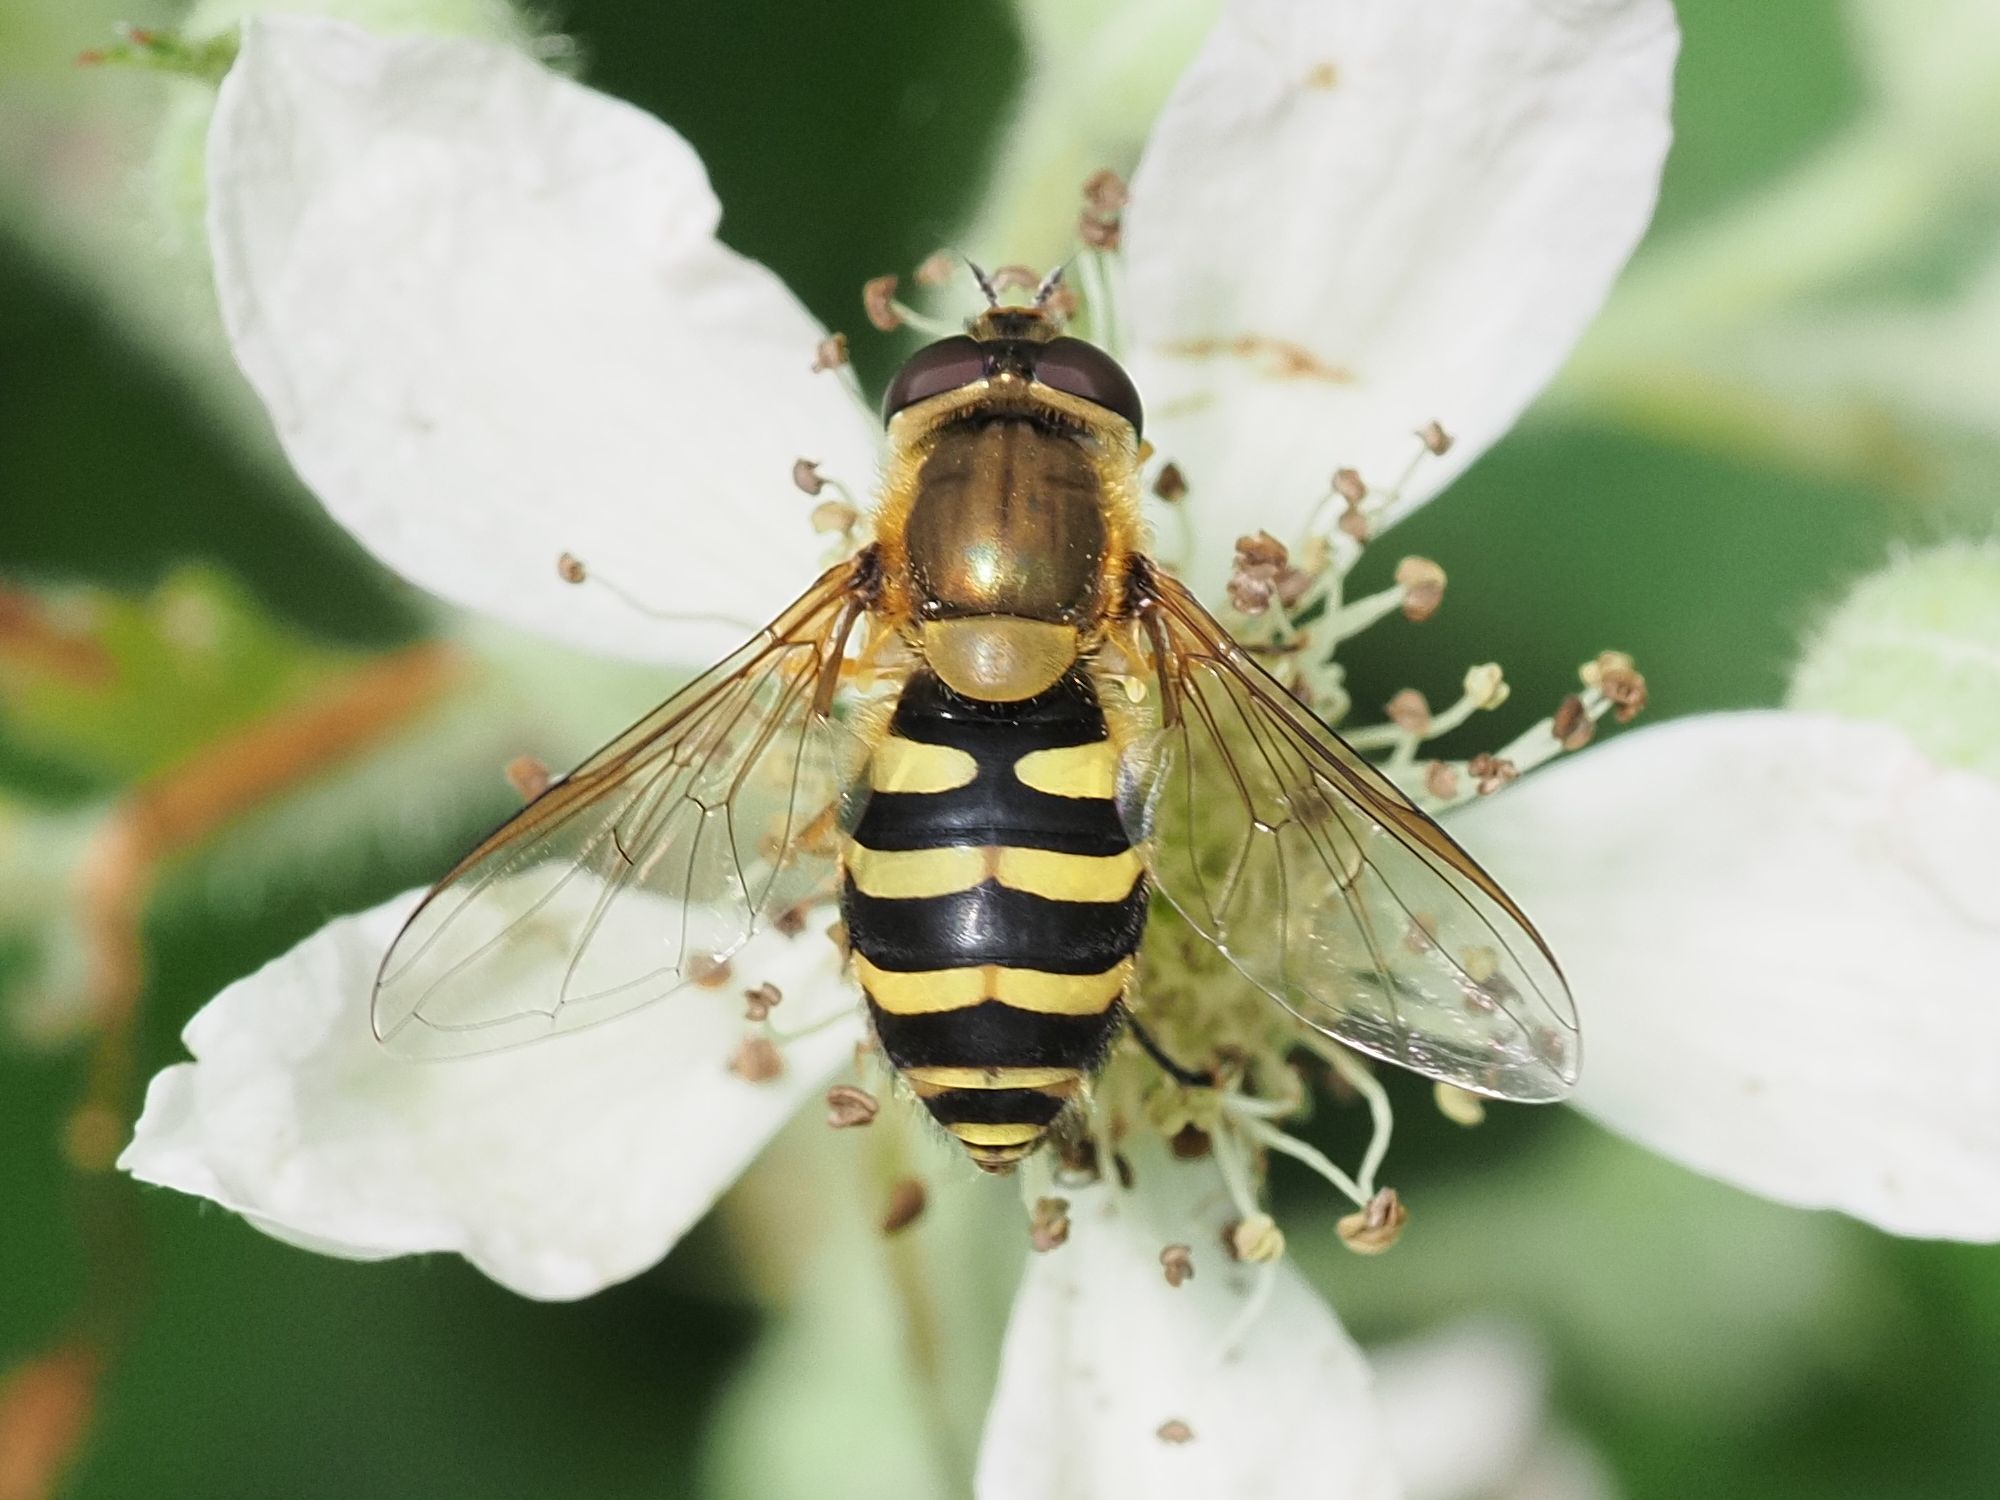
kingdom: Animalia
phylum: Arthropoda
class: Insecta
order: Diptera
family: Syrphidae
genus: Syrphus
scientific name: Syrphus
